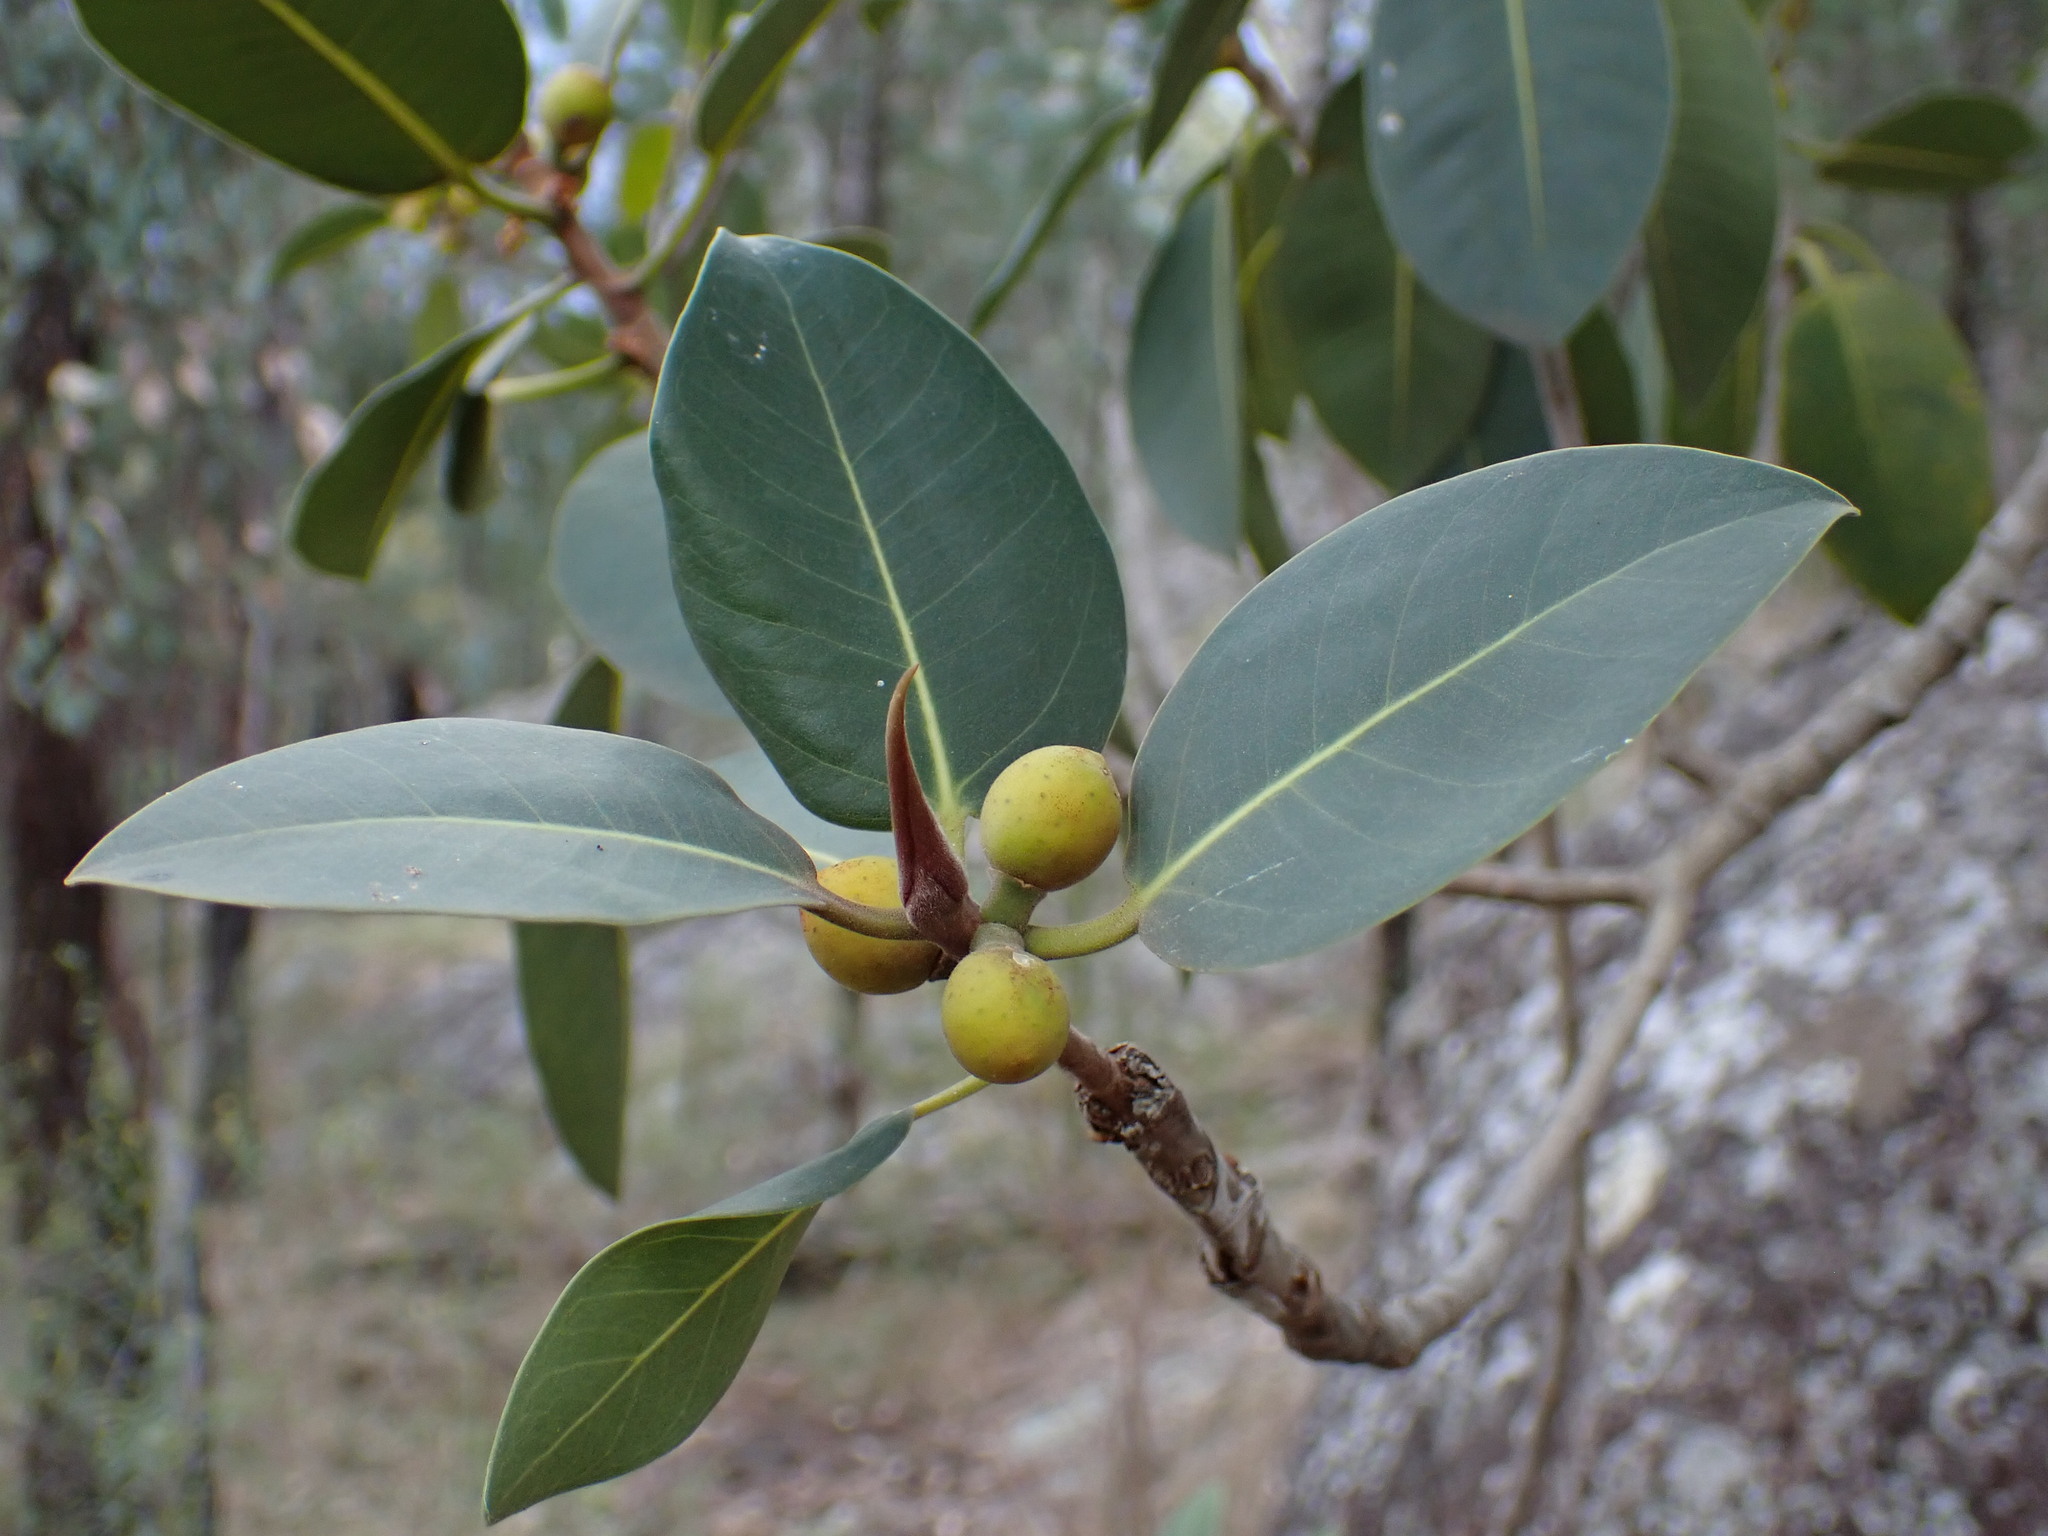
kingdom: Plantae
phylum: Tracheophyta
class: Magnoliopsida
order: Rosales
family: Moraceae
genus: Ficus
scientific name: Ficus rubiginosa
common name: Port jackson fig
